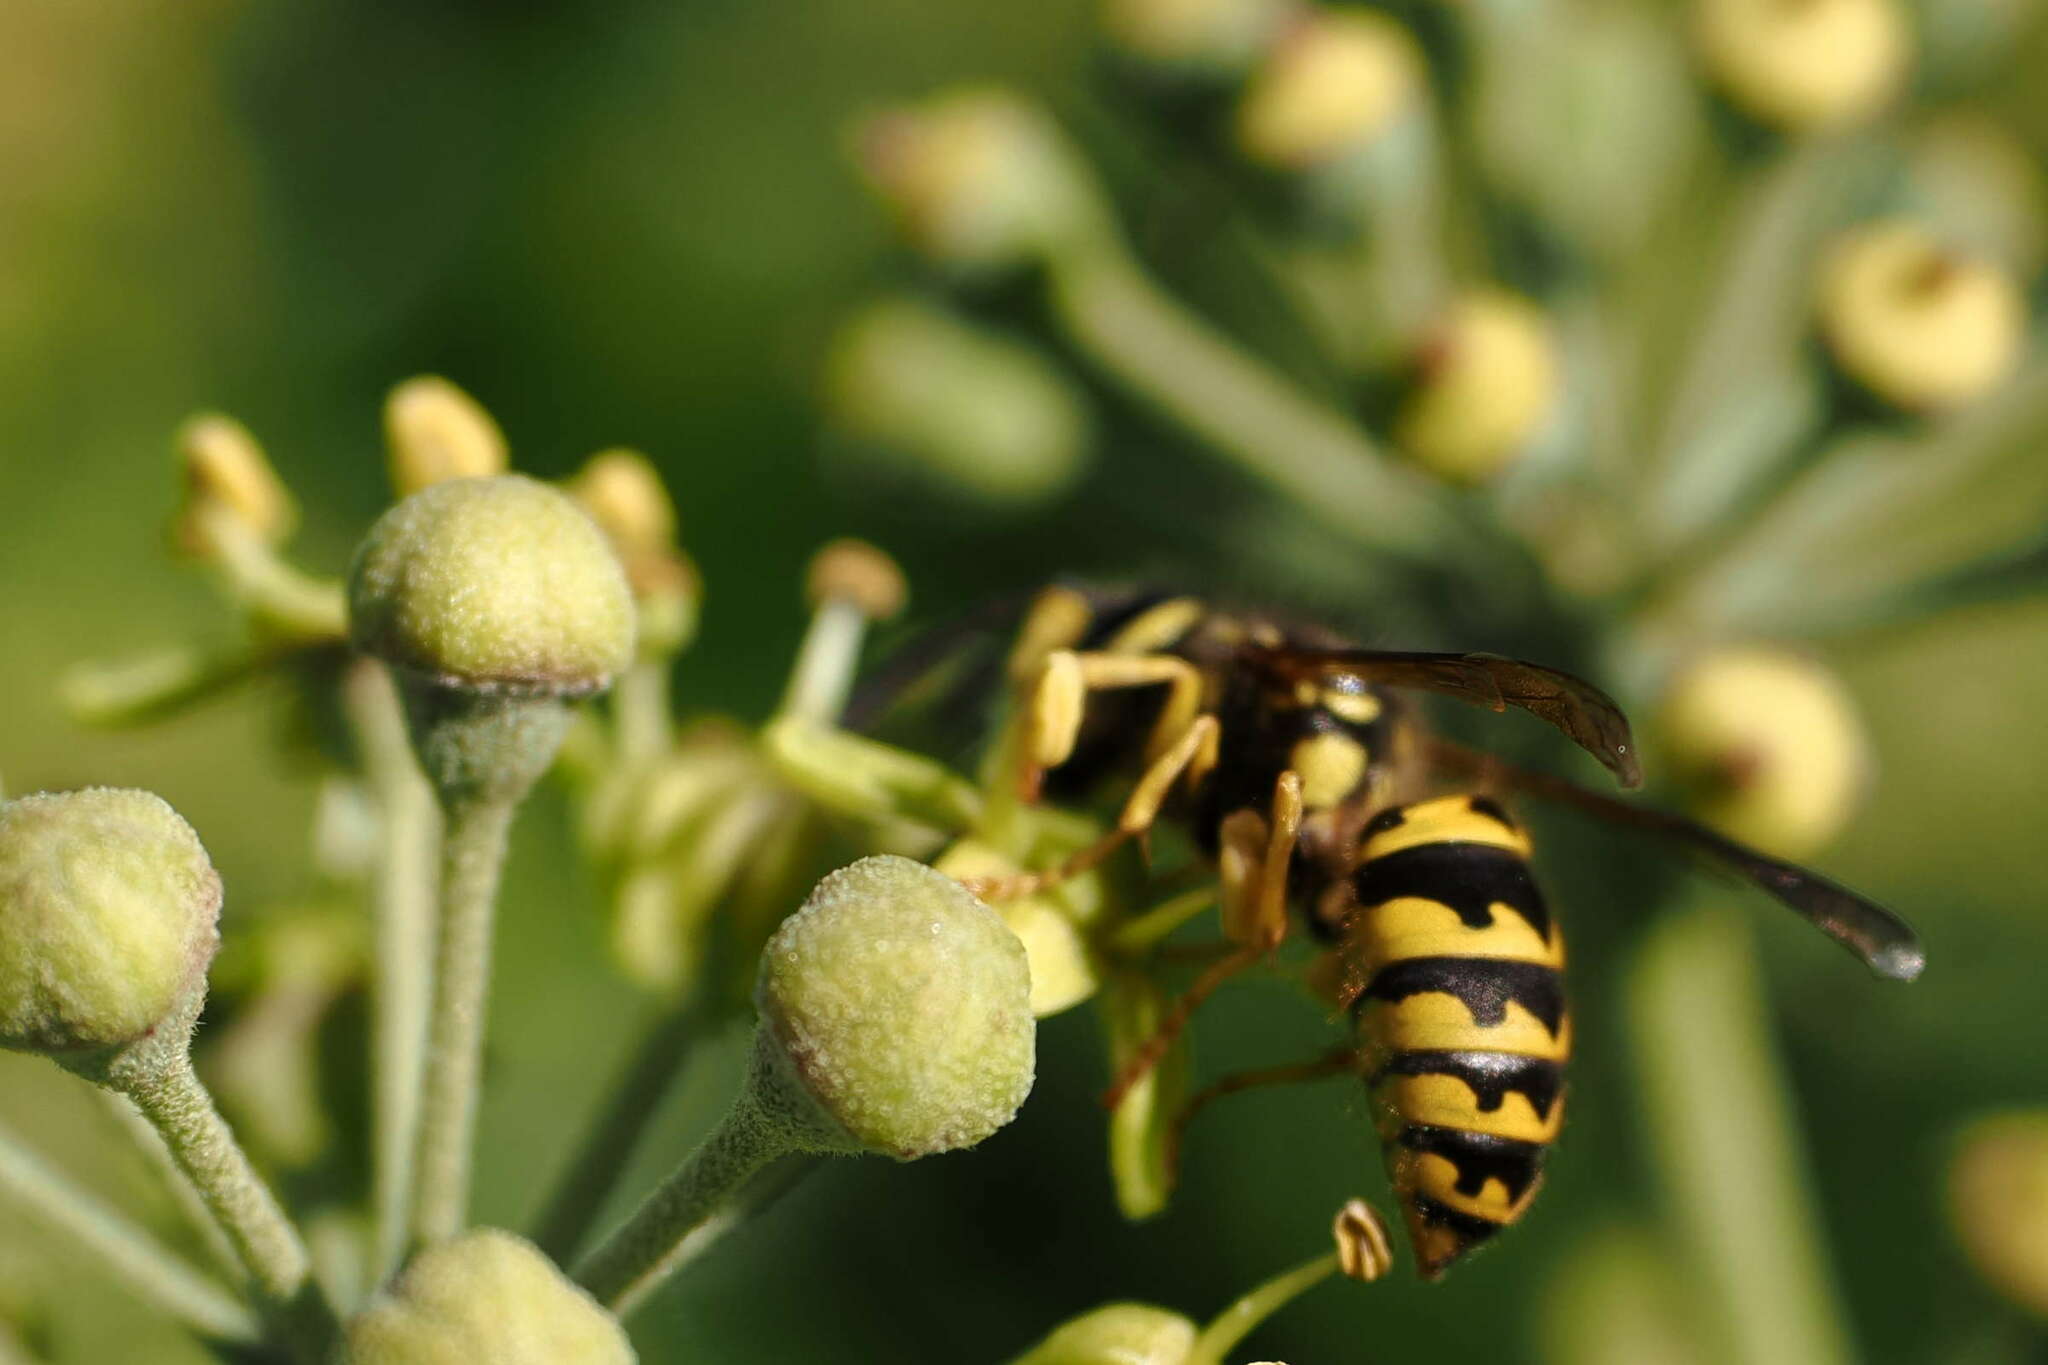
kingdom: Animalia
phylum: Arthropoda
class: Insecta
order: Hymenoptera
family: Vespidae
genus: Vespula
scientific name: Vespula pensylvanica
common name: Western yellowjacket
